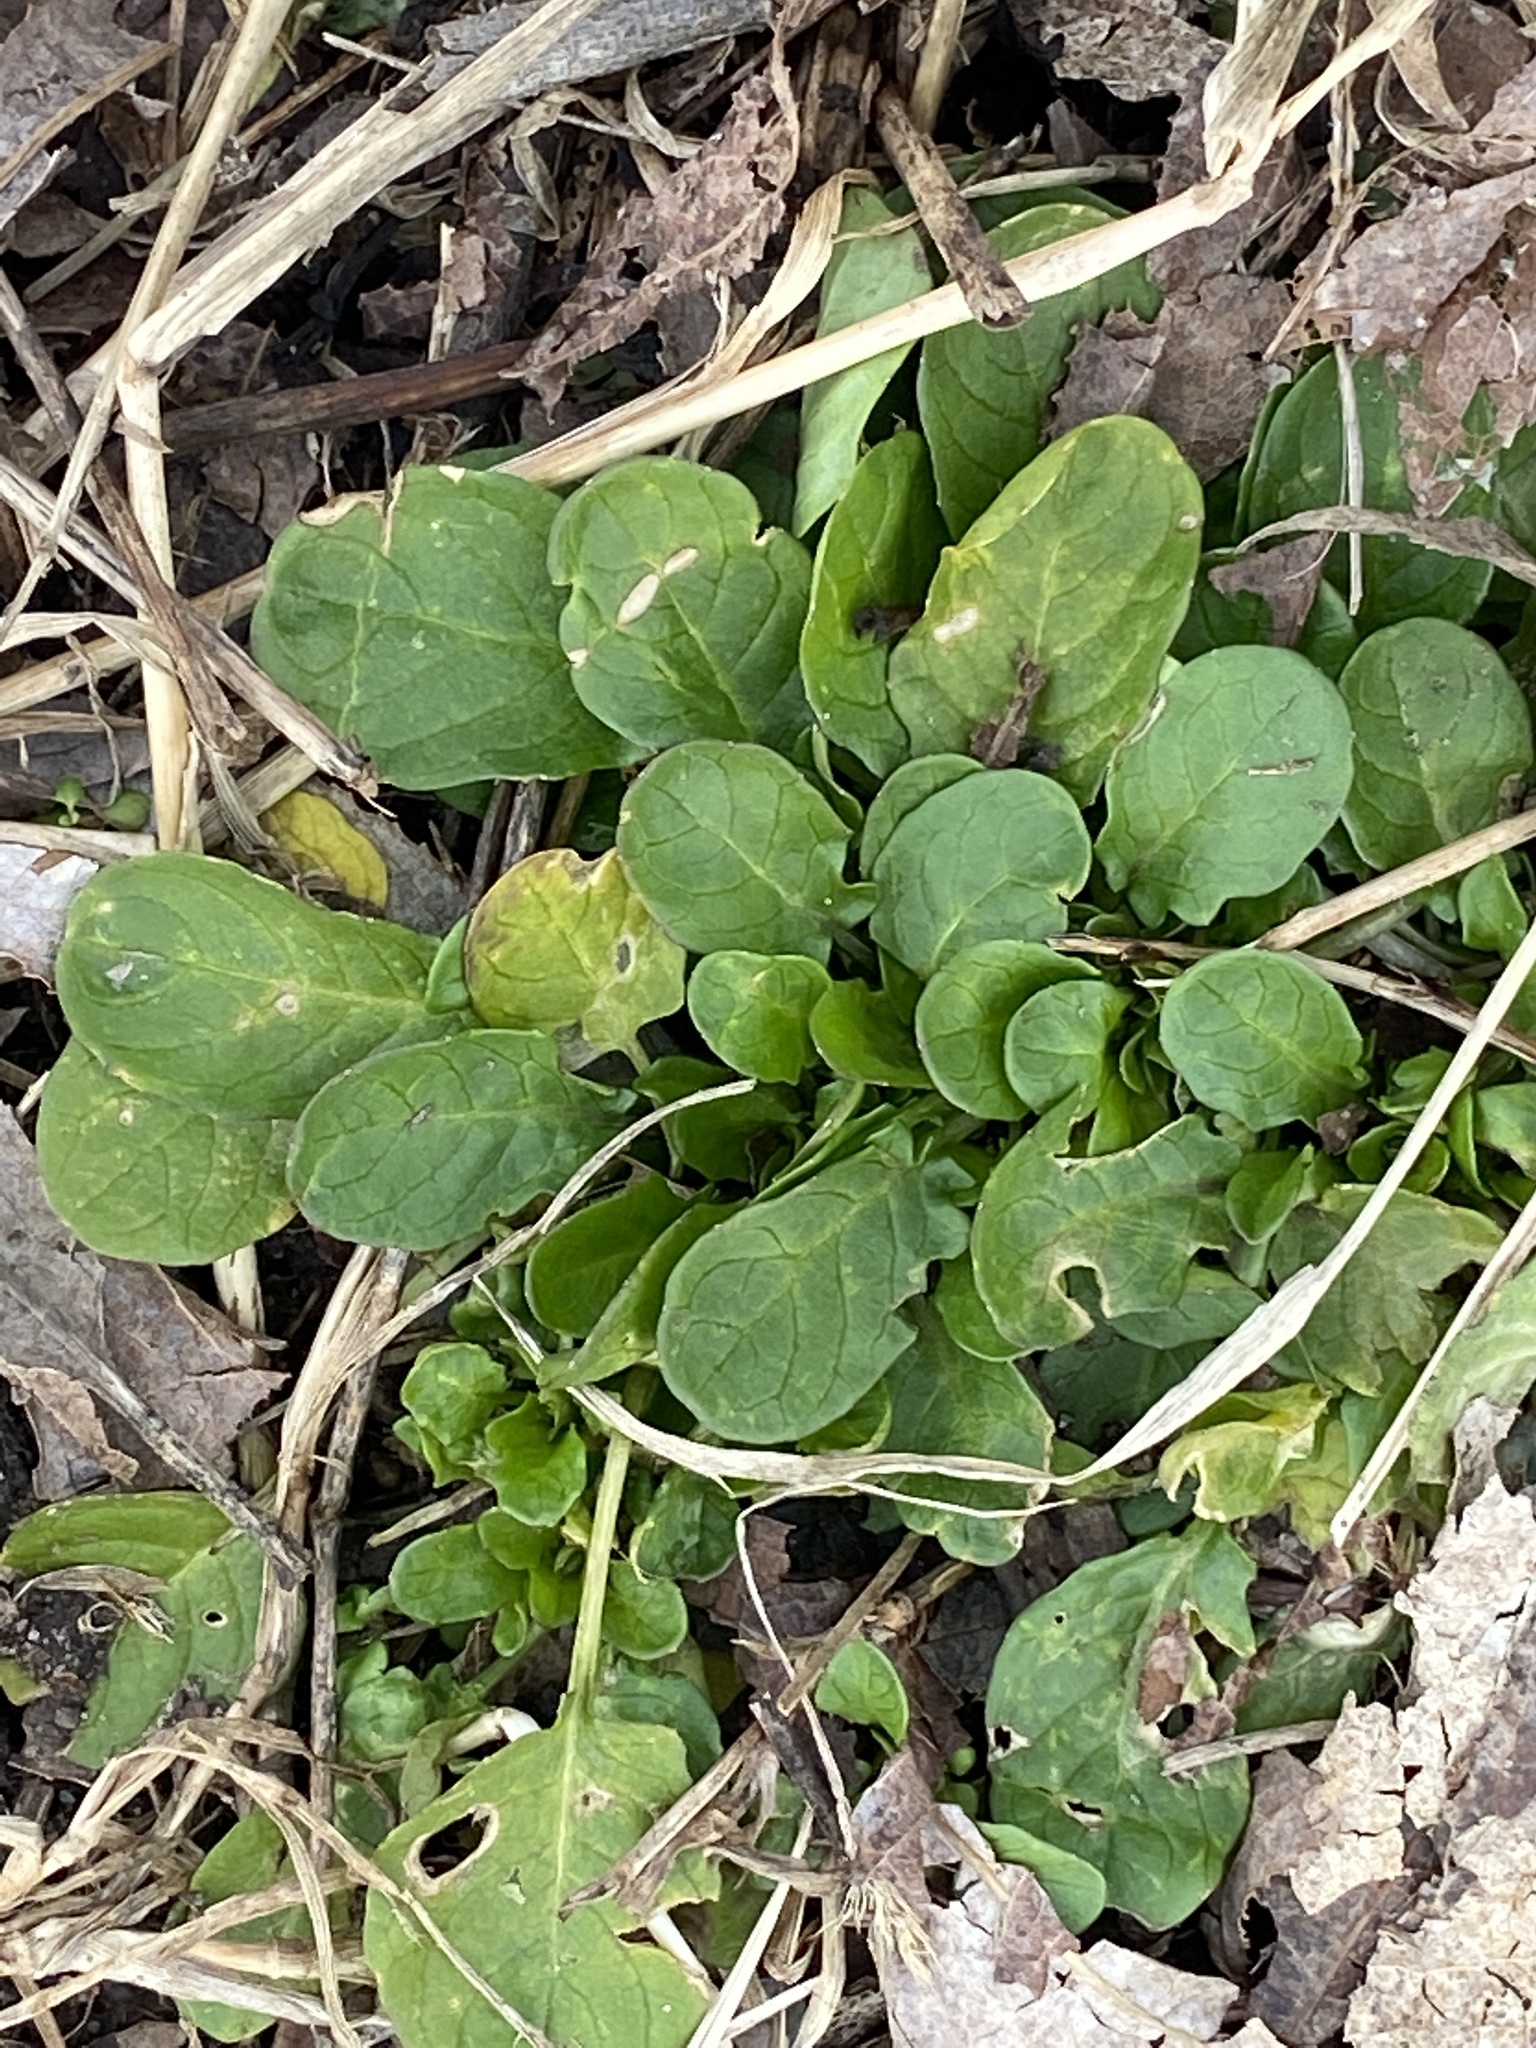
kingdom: Plantae
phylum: Tracheophyta
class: Magnoliopsida
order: Brassicales
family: Brassicaceae
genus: Barbarea
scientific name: Barbarea vulgaris
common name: Cressy-greens
